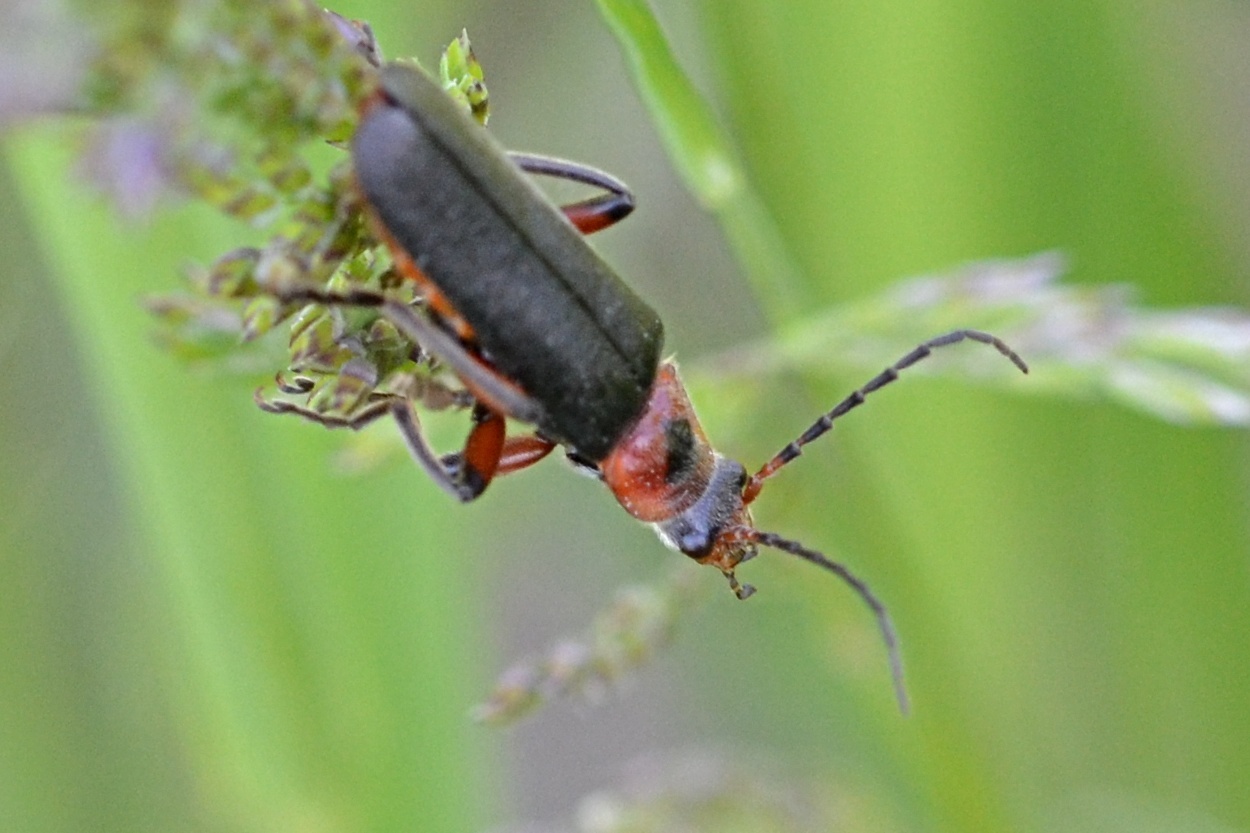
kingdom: Animalia
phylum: Arthropoda
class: Insecta
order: Coleoptera
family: Cantharidae
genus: Cantharis
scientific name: Cantharis rustica
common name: Soldier beetle
